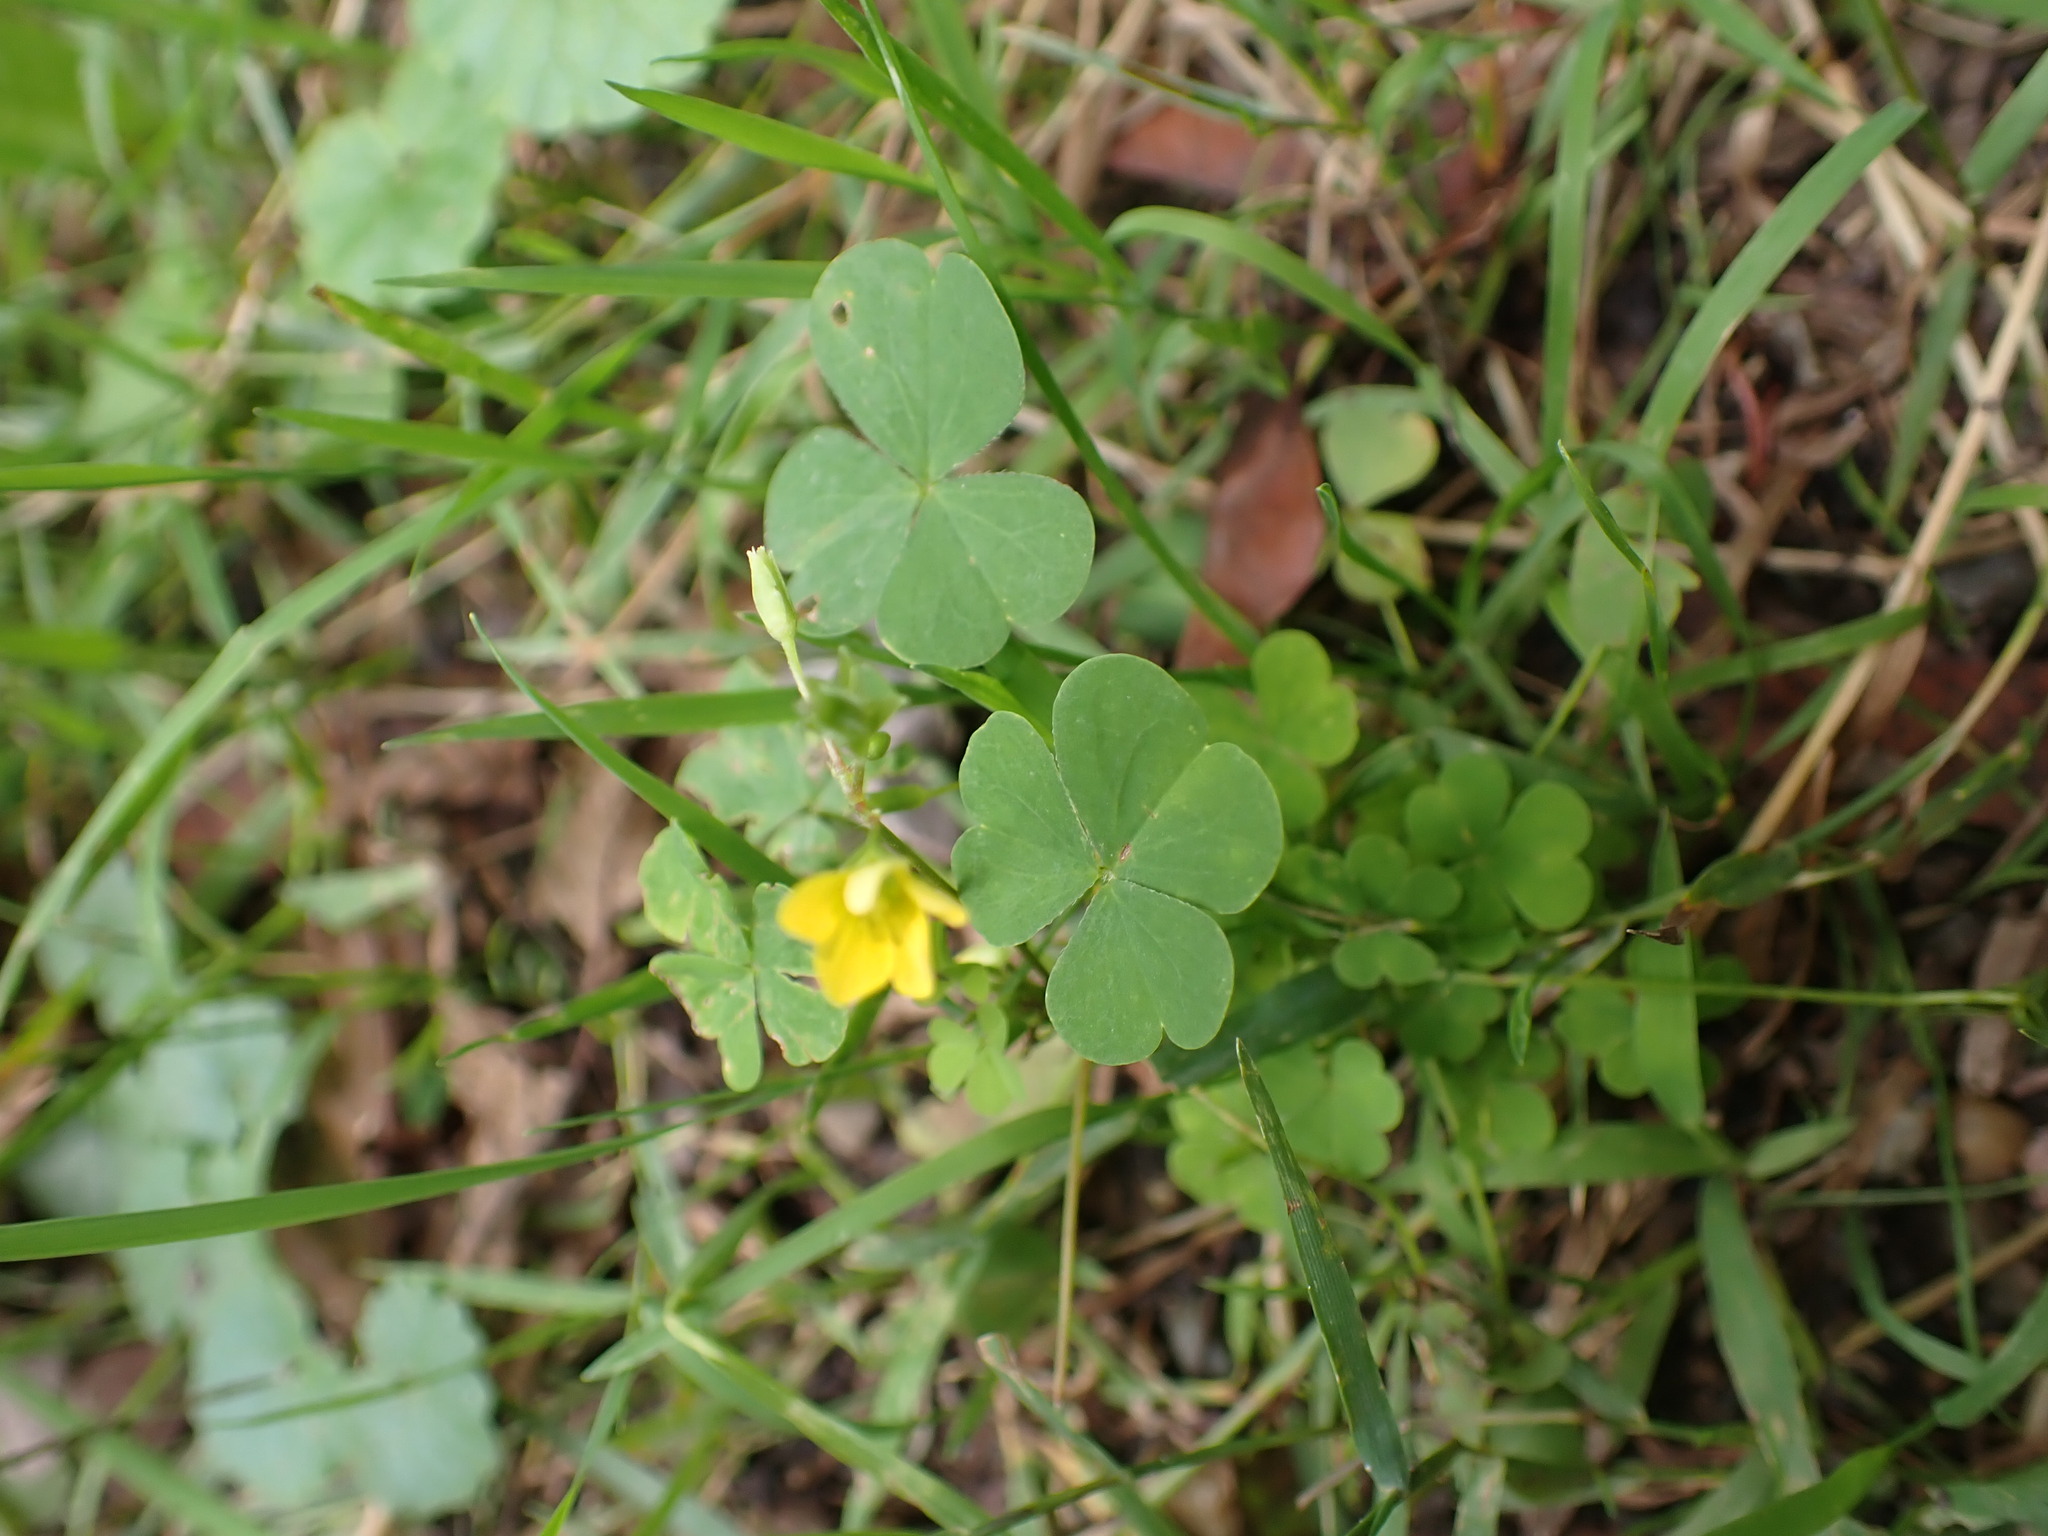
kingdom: Plantae
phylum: Tracheophyta
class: Magnoliopsida
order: Oxalidales
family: Oxalidaceae
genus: Oxalis
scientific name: Oxalis stricta
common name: Upright yellow-sorrel
